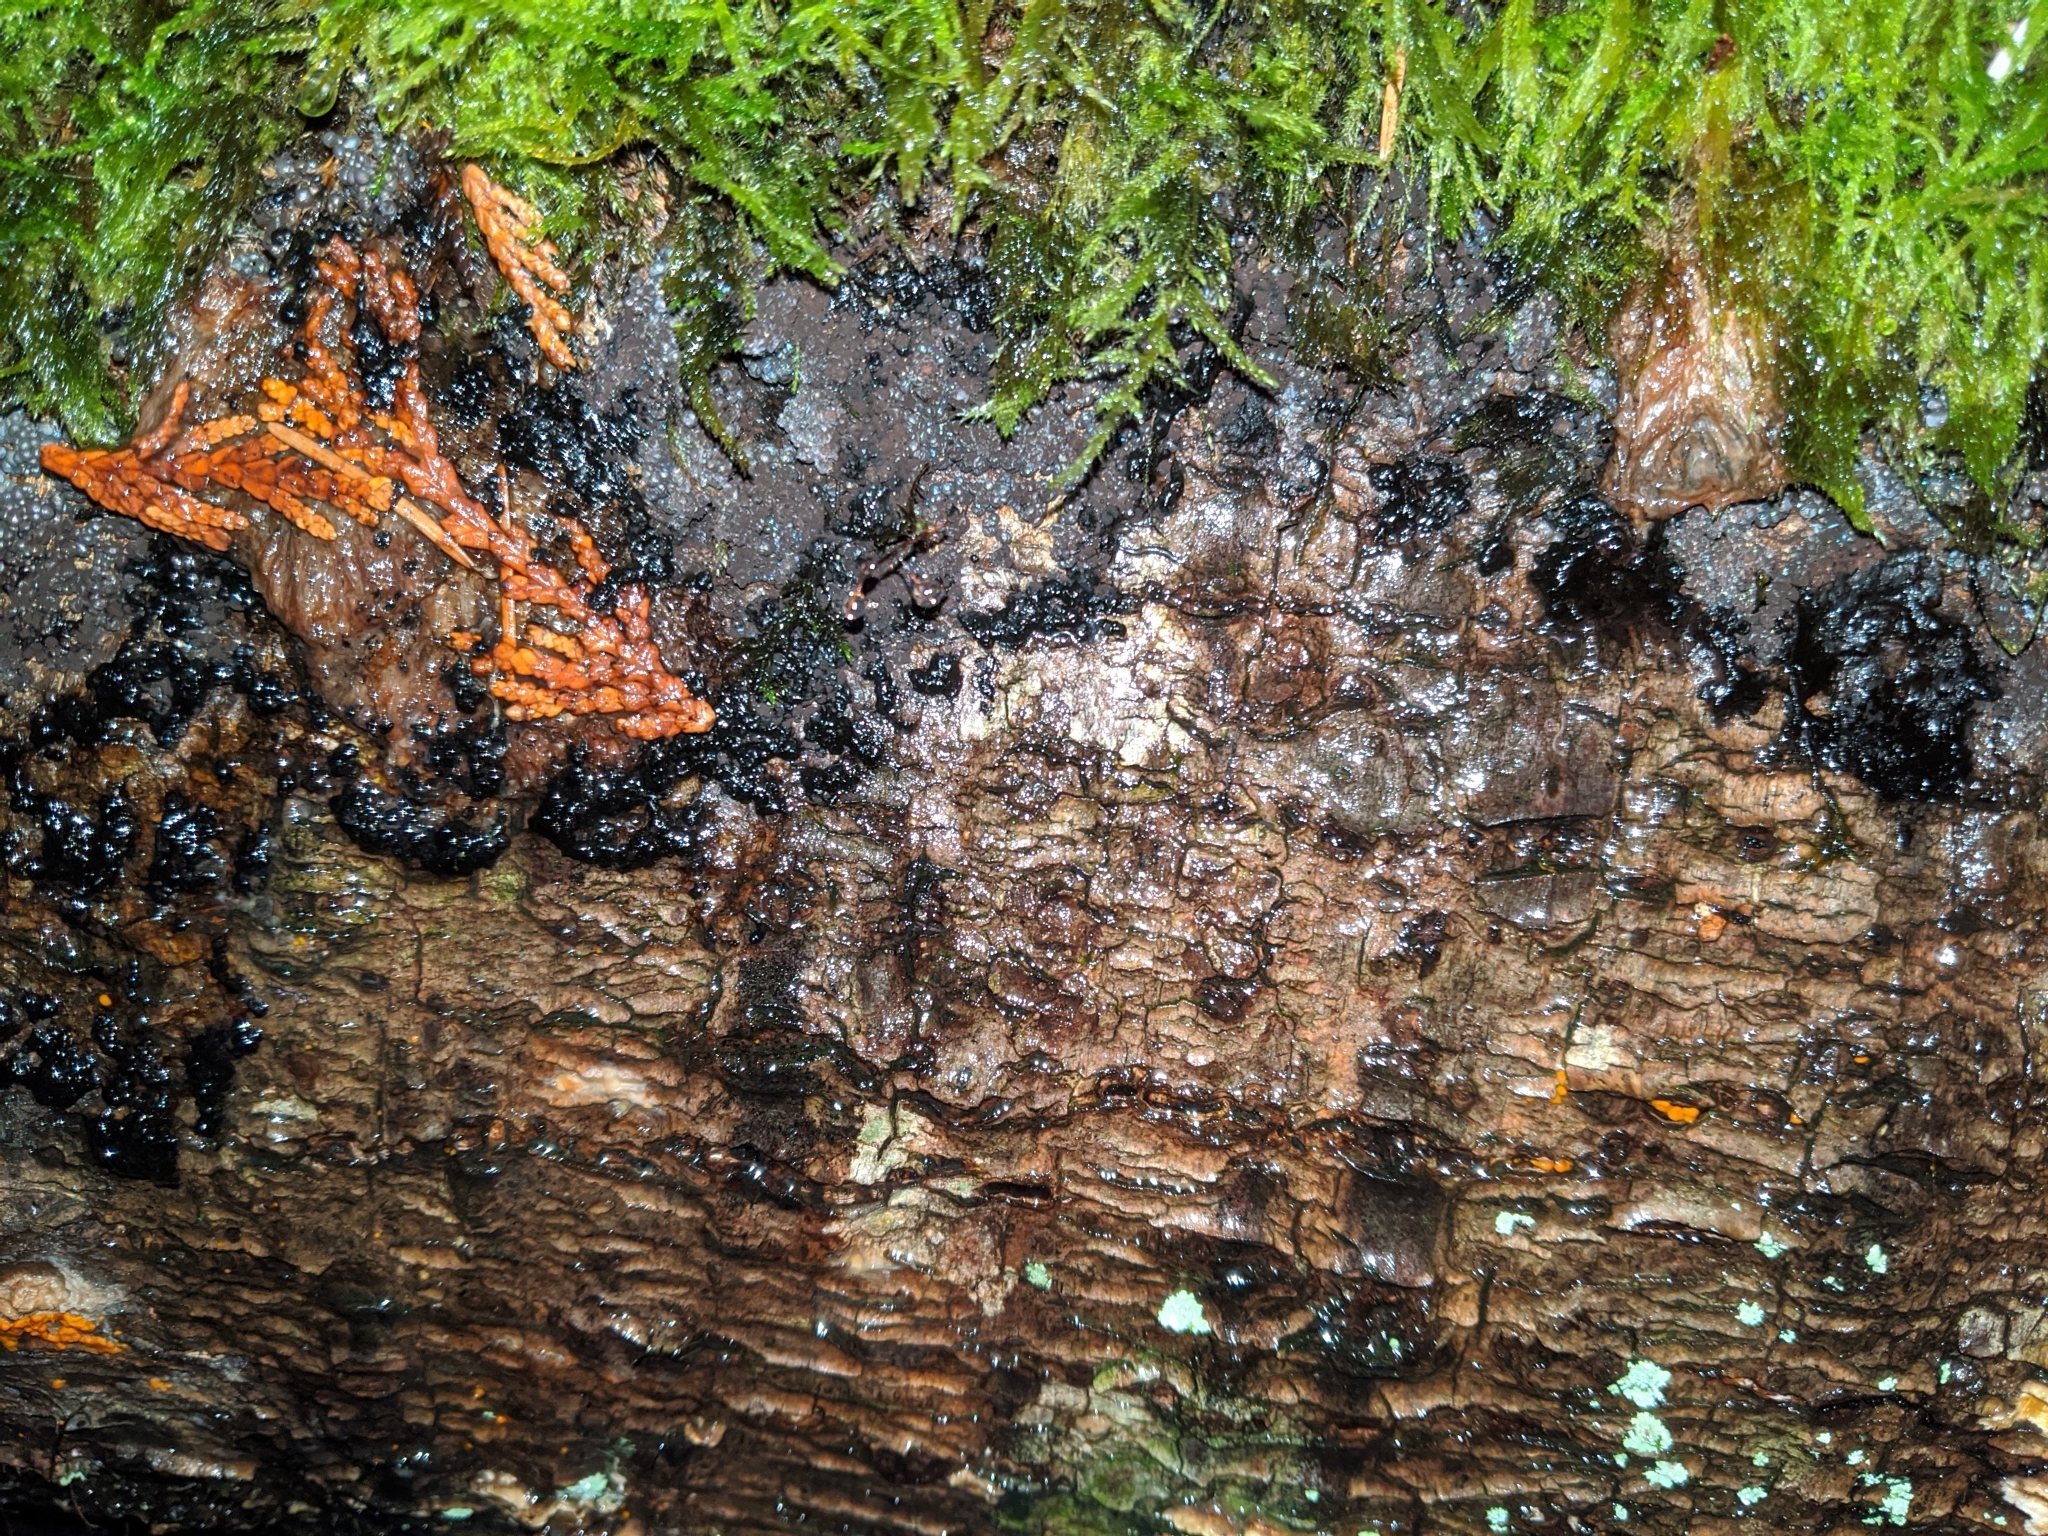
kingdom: Protozoa
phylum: Mycetozoa
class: Myxomycetes
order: Physarales
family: Physaraceae
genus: Badhamia
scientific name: Badhamia utricularis
